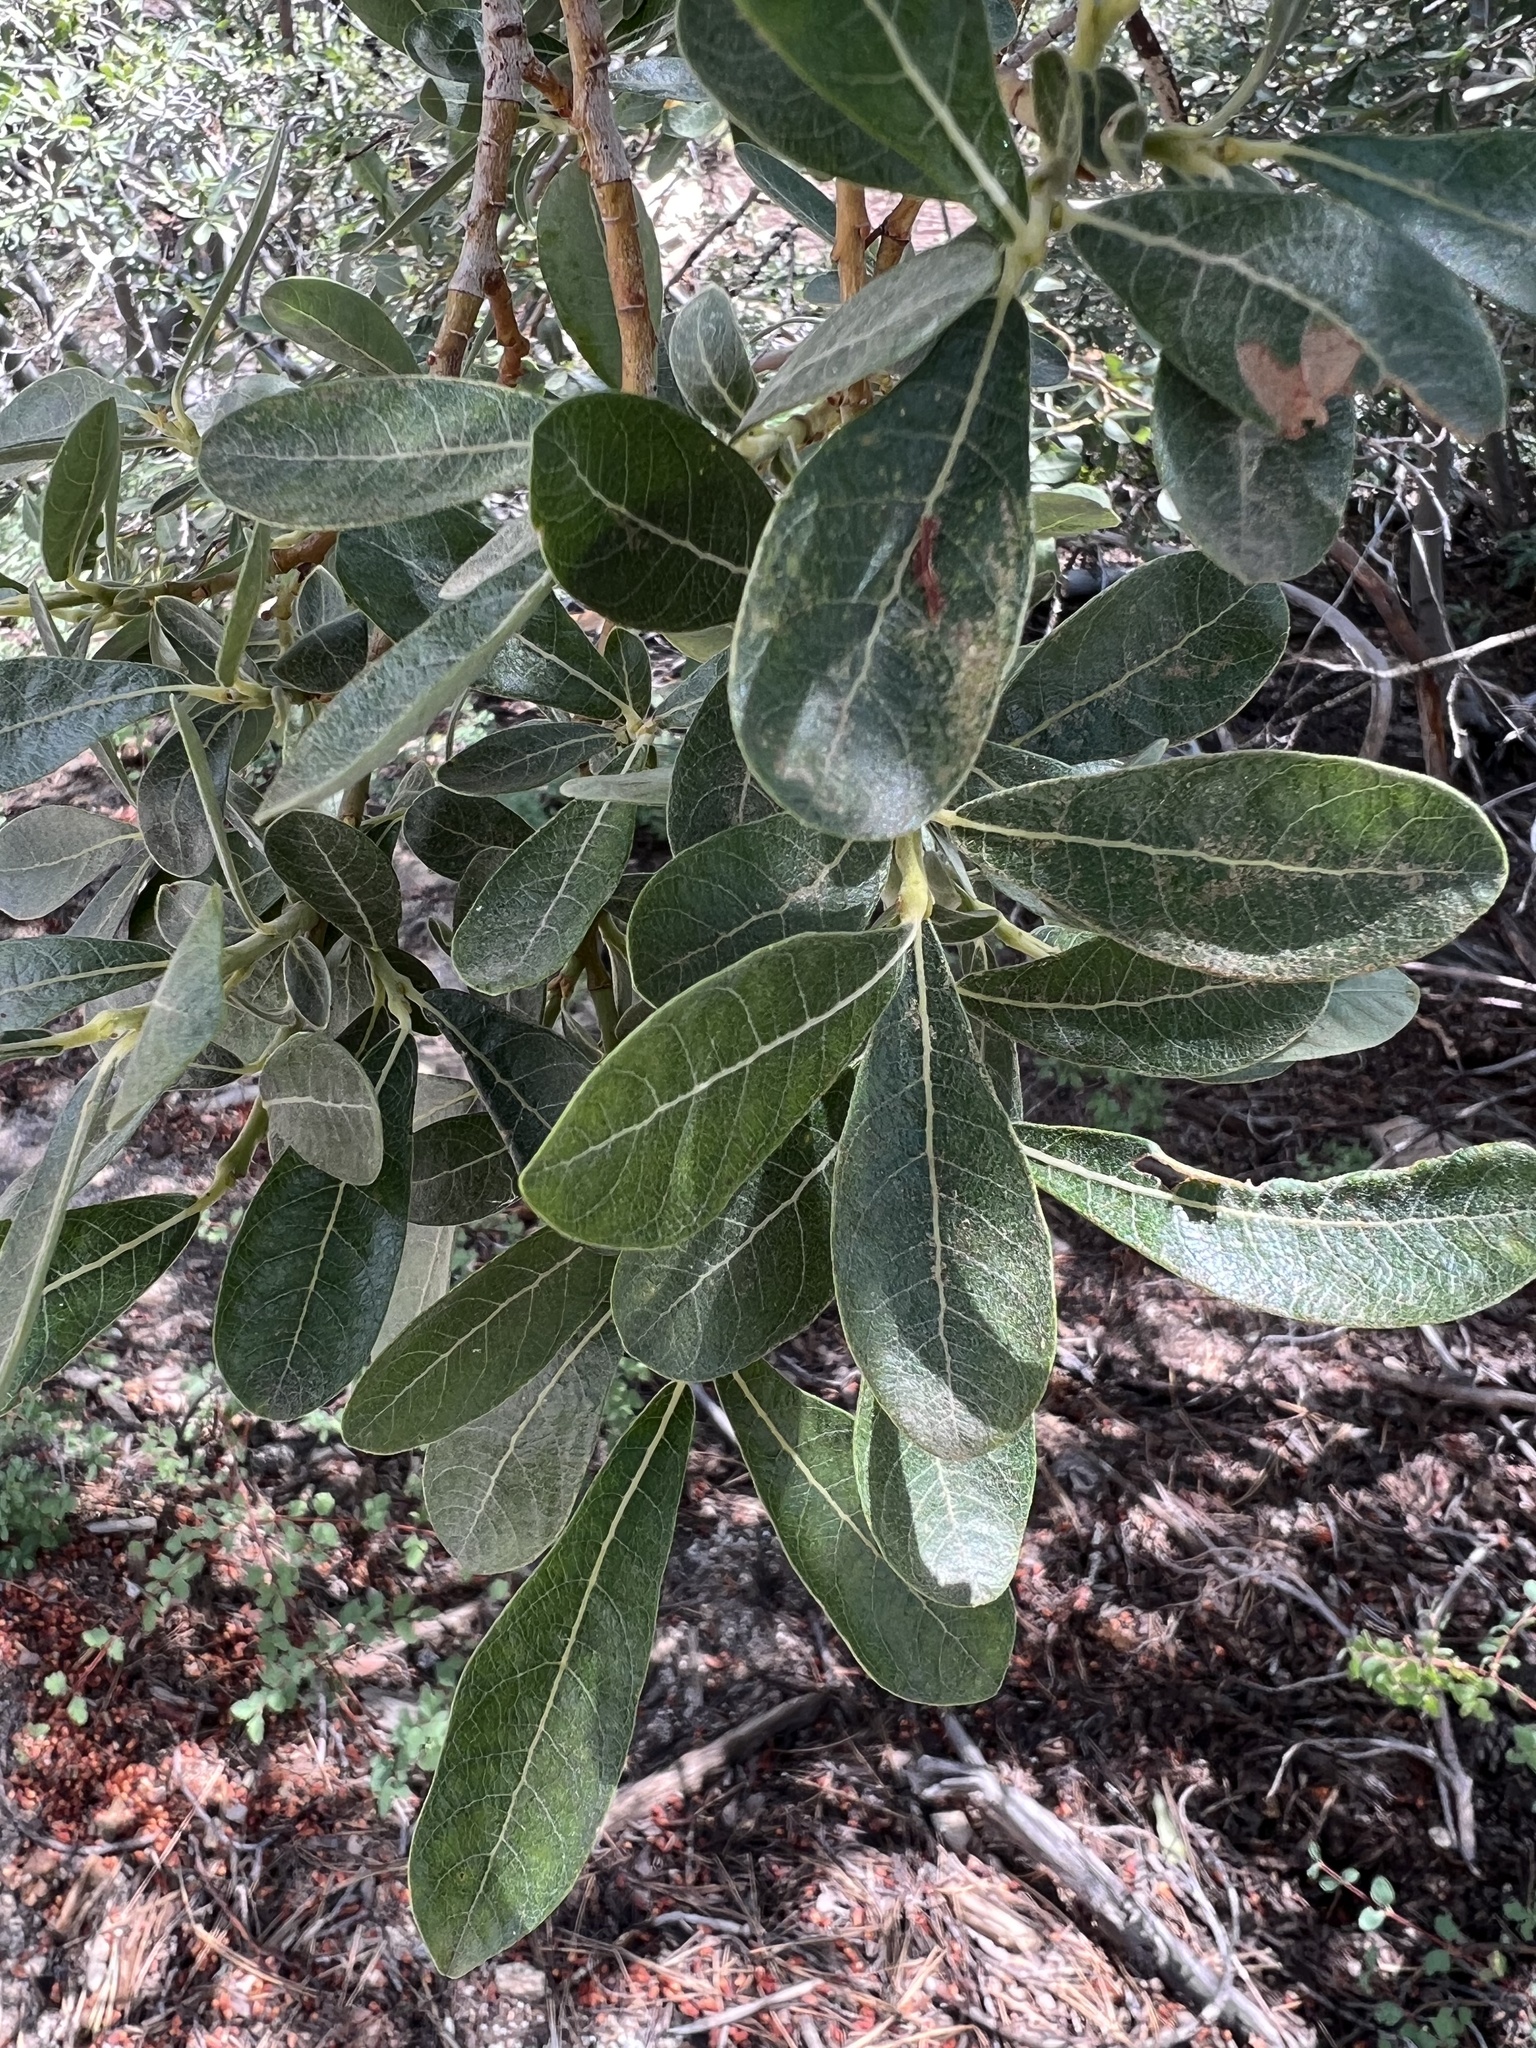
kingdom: Plantae
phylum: Tracheophyta
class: Magnoliopsida
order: Malpighiales
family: Salicaceae
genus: Salix
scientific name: Salix scouleriana
